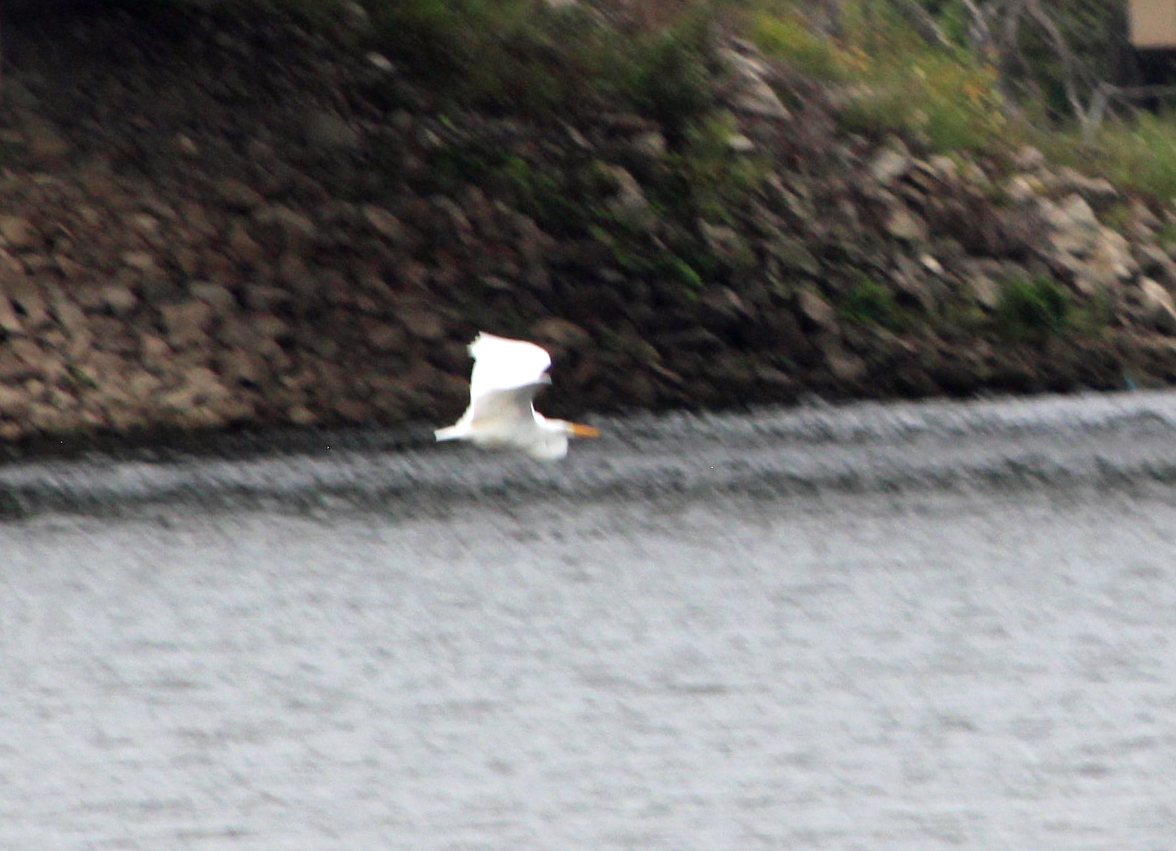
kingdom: Animalia
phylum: Chordata
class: Aves
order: Pelecaniformes
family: Ardeidae
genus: Ardea
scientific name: Ardea alba
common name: Great egret
